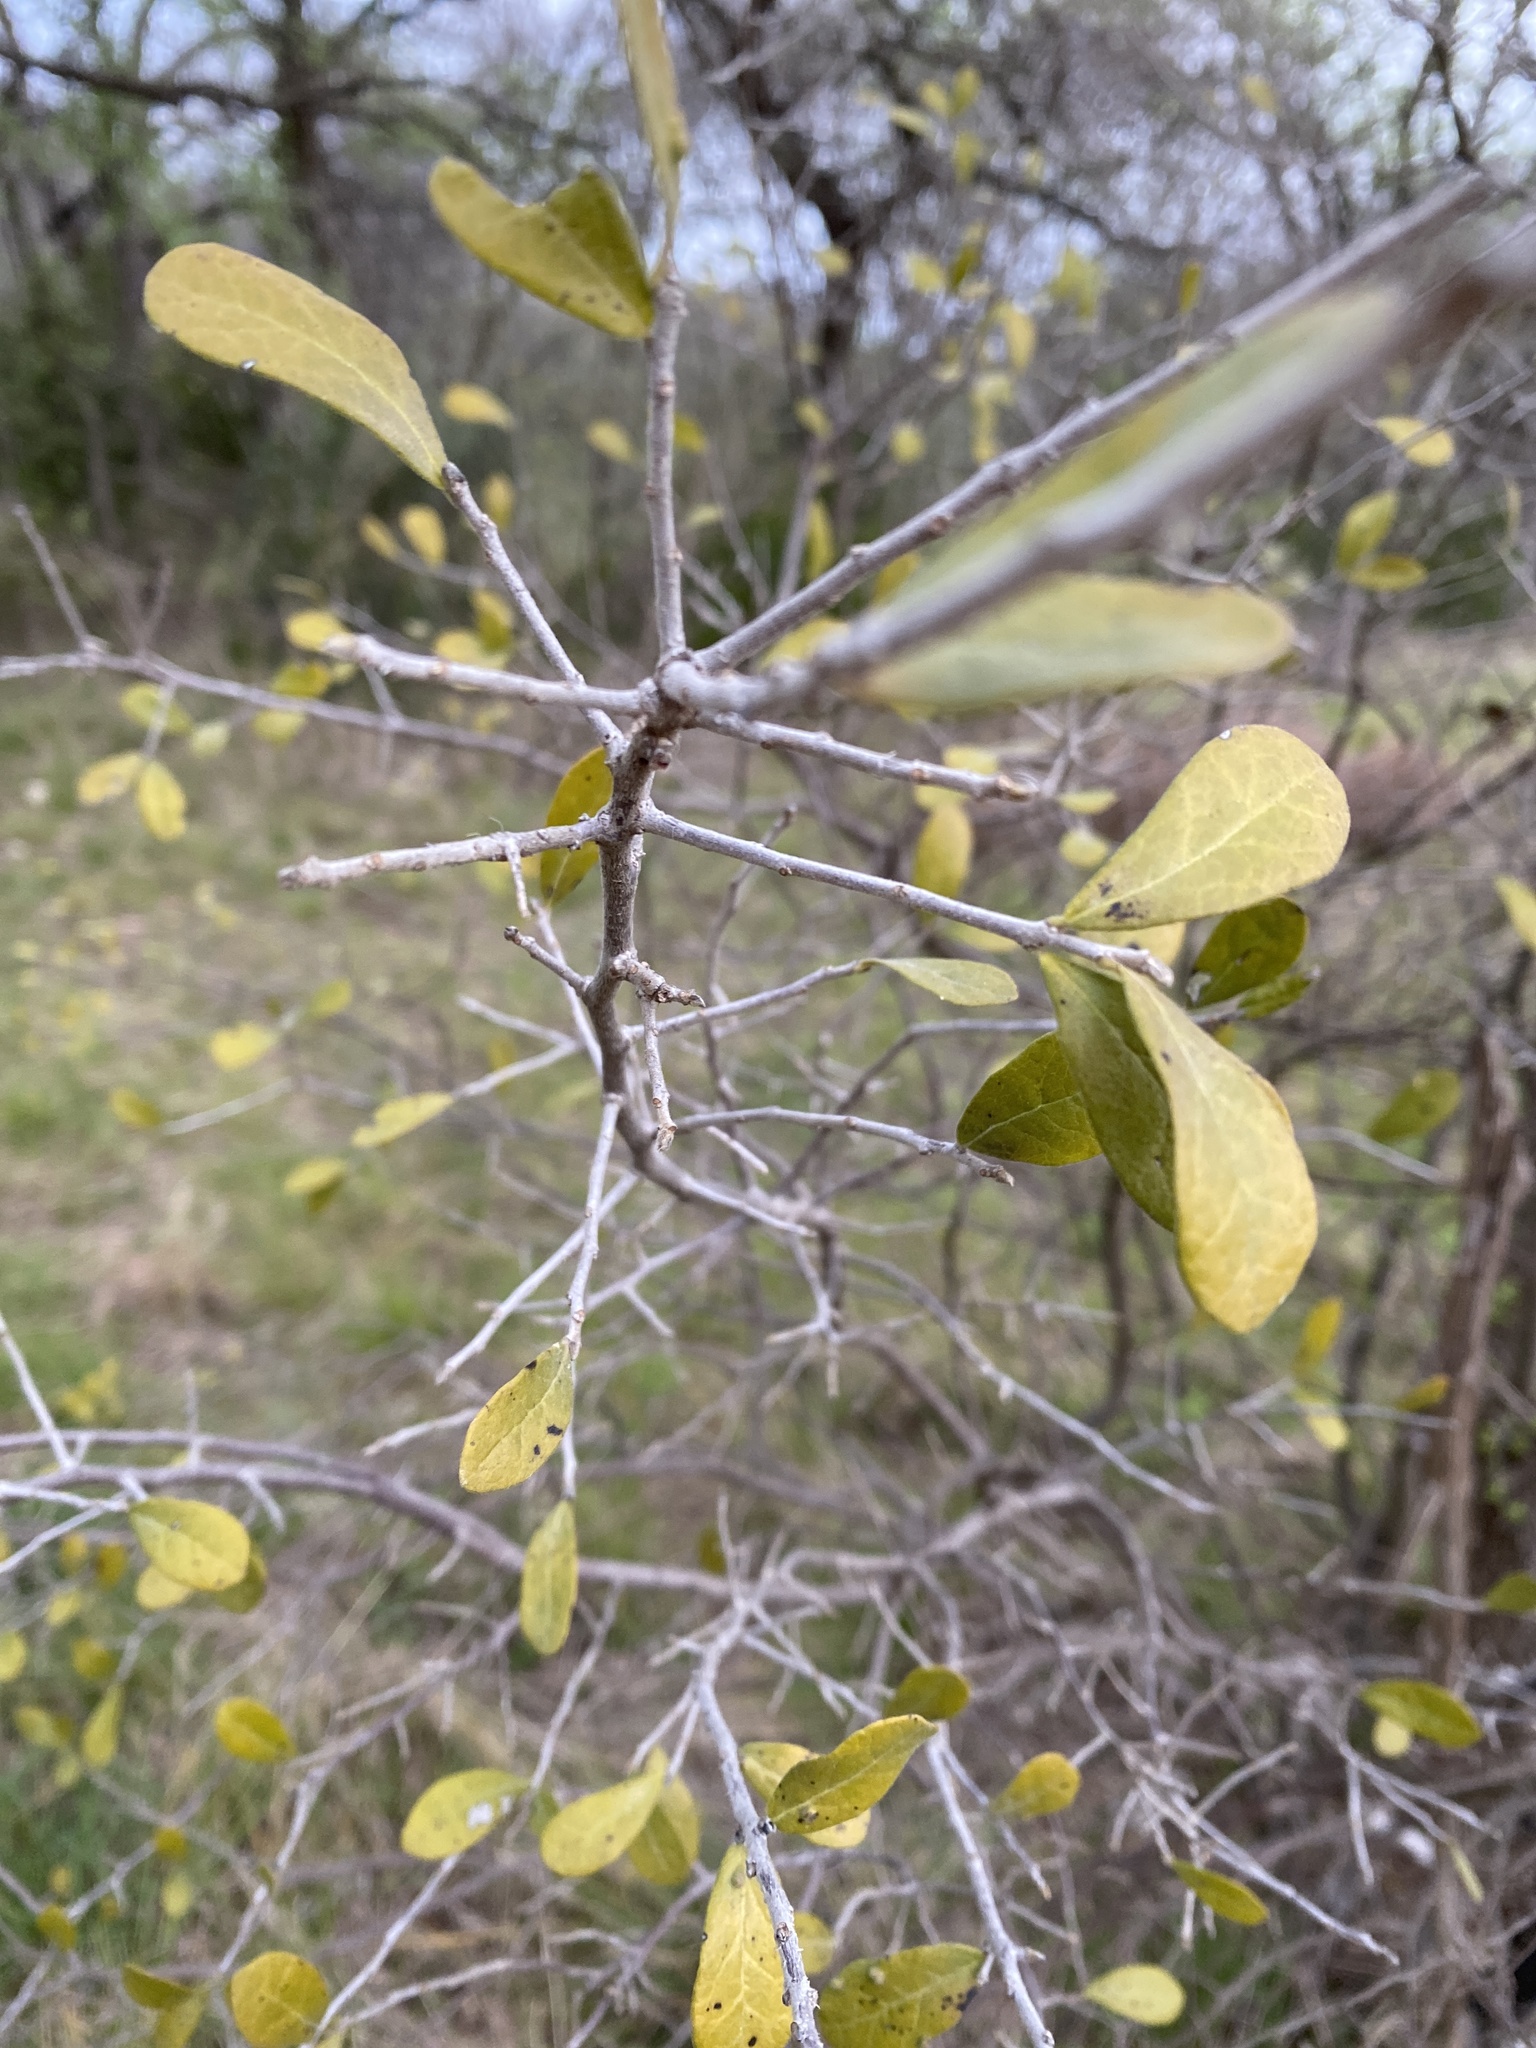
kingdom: Plantae
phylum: Tracheophyta
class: Magnoliopsida
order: Ericales
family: Ebenaceae
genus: Diospyros
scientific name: Diospyros texana
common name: Texas persimmon
